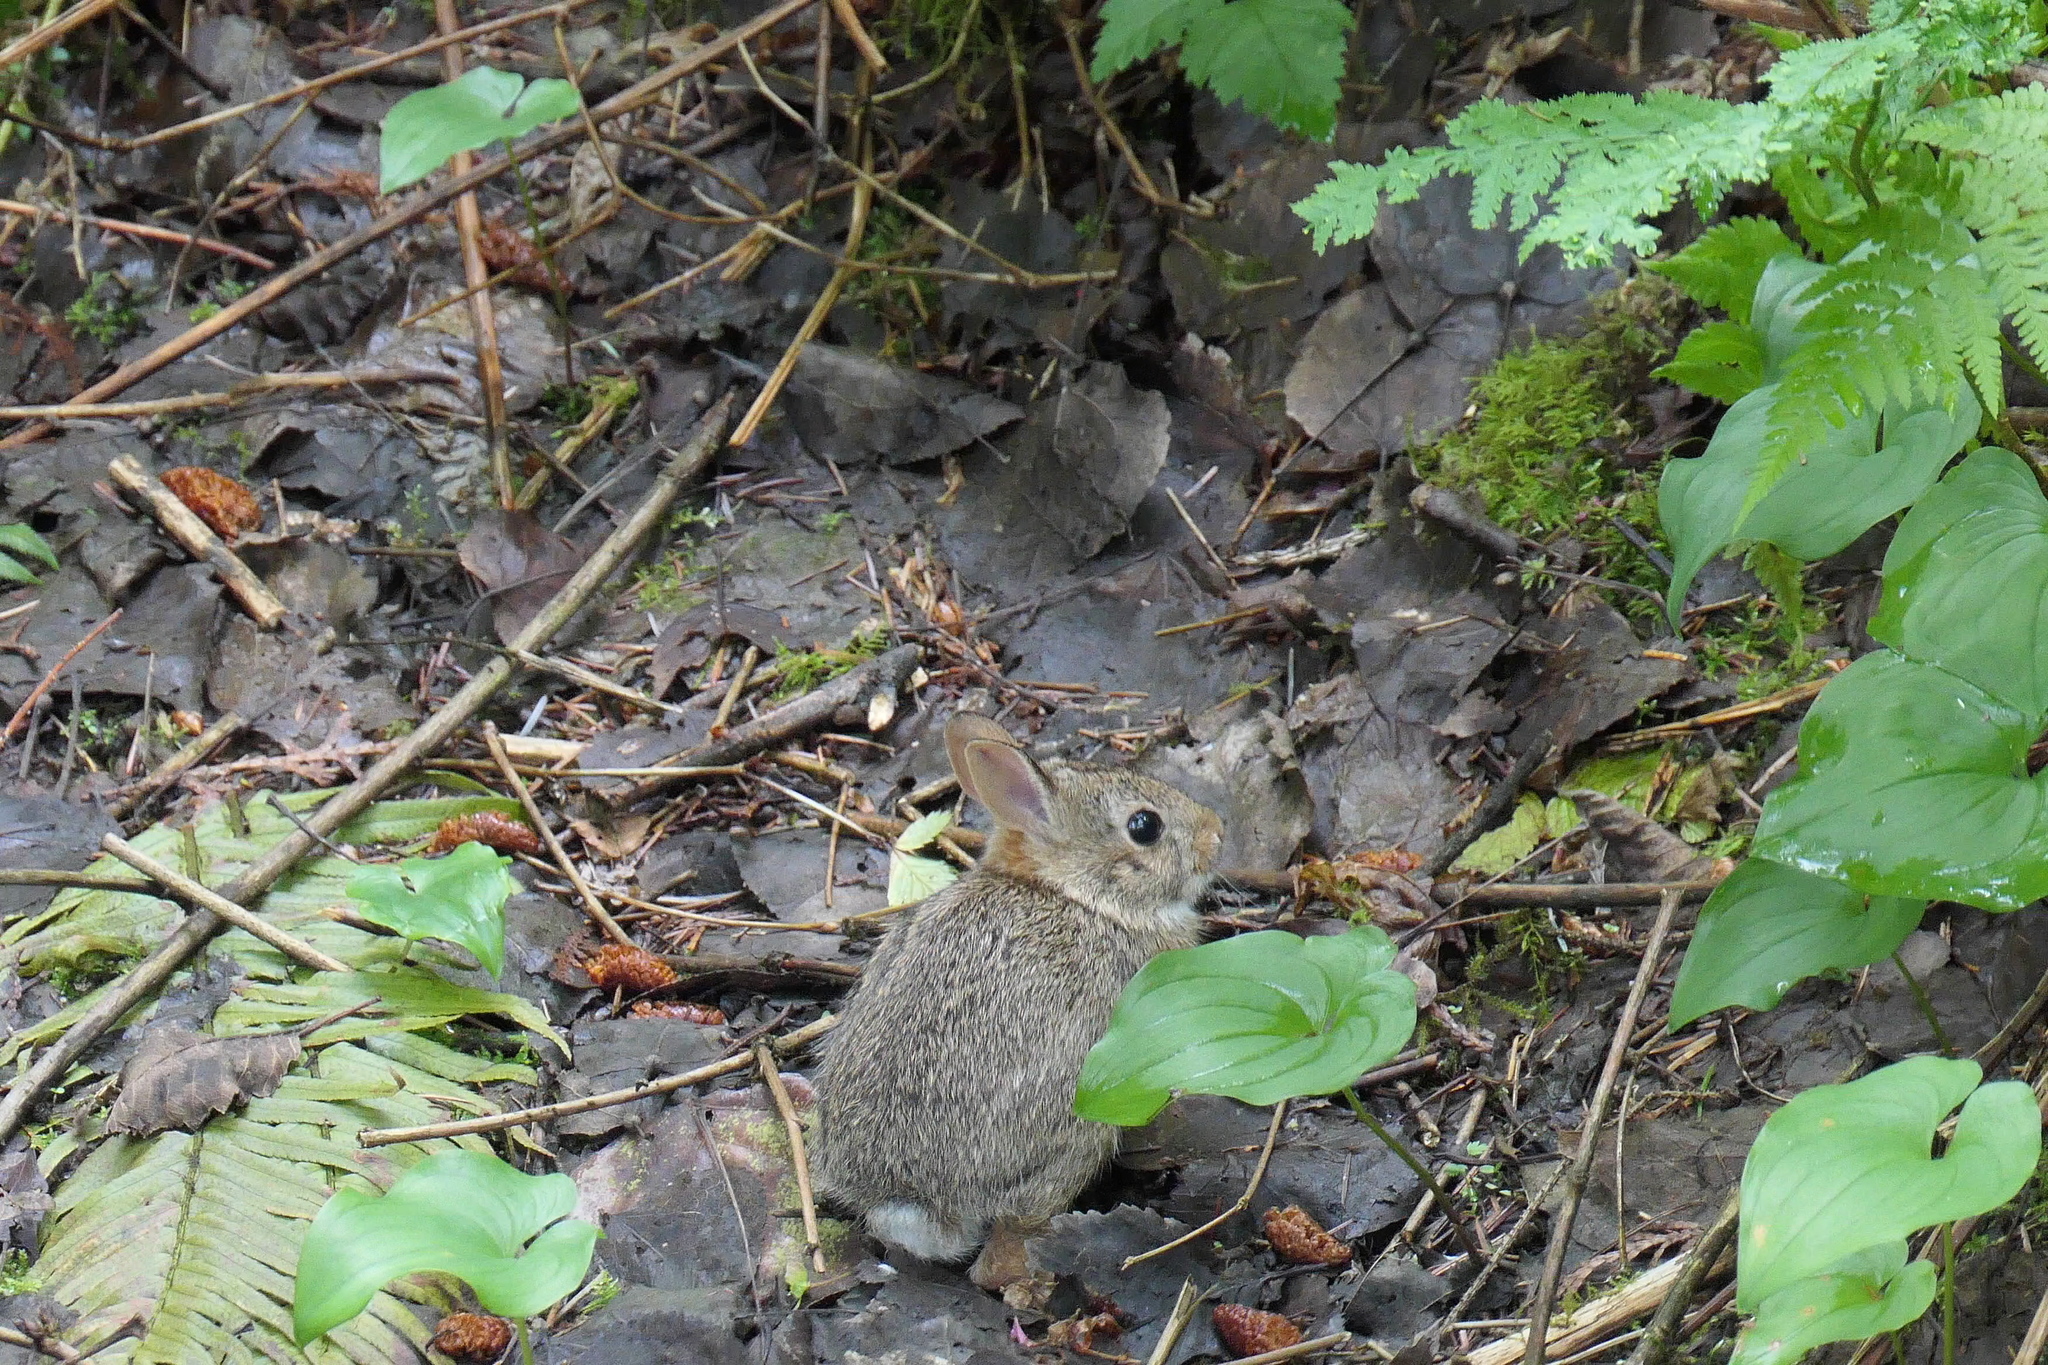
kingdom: Animalia
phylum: Chordata
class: Mammalia
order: Lagomorpha
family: Leporidae
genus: Sylvilagus
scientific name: Sylvilagus floridanus
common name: Eastern cottontail
